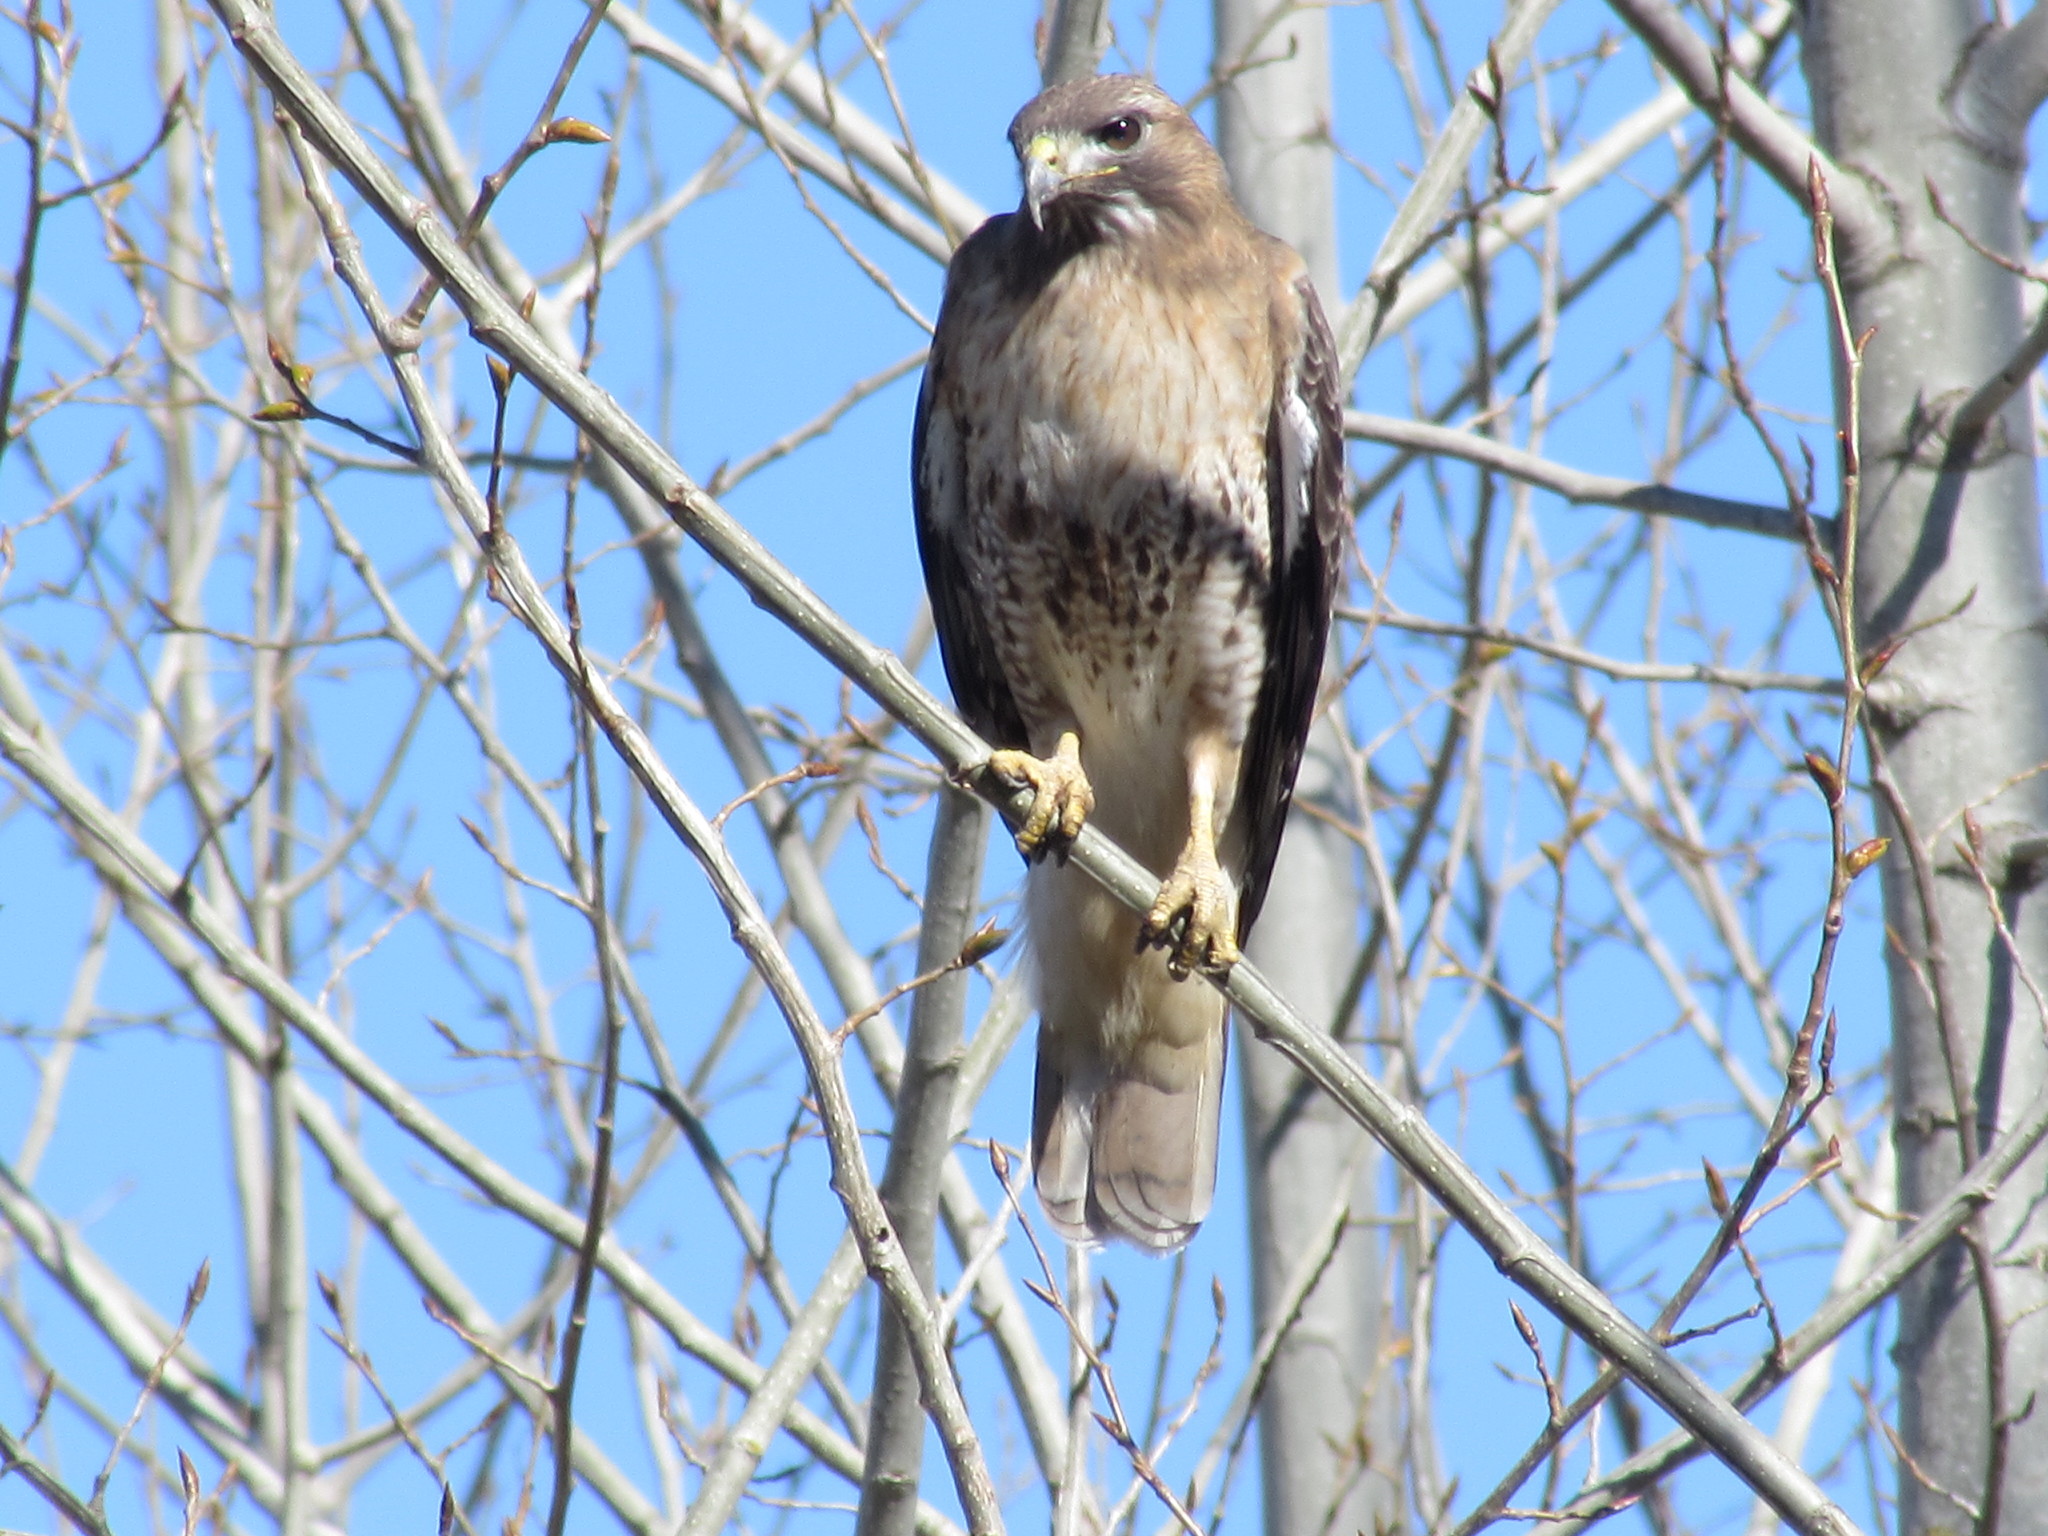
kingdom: Animalia
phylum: Chordata
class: Aves
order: Accipitriformes
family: Accipitridae
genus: Buteo
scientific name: Buteo jamaicensis
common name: Red-tailed hawk
